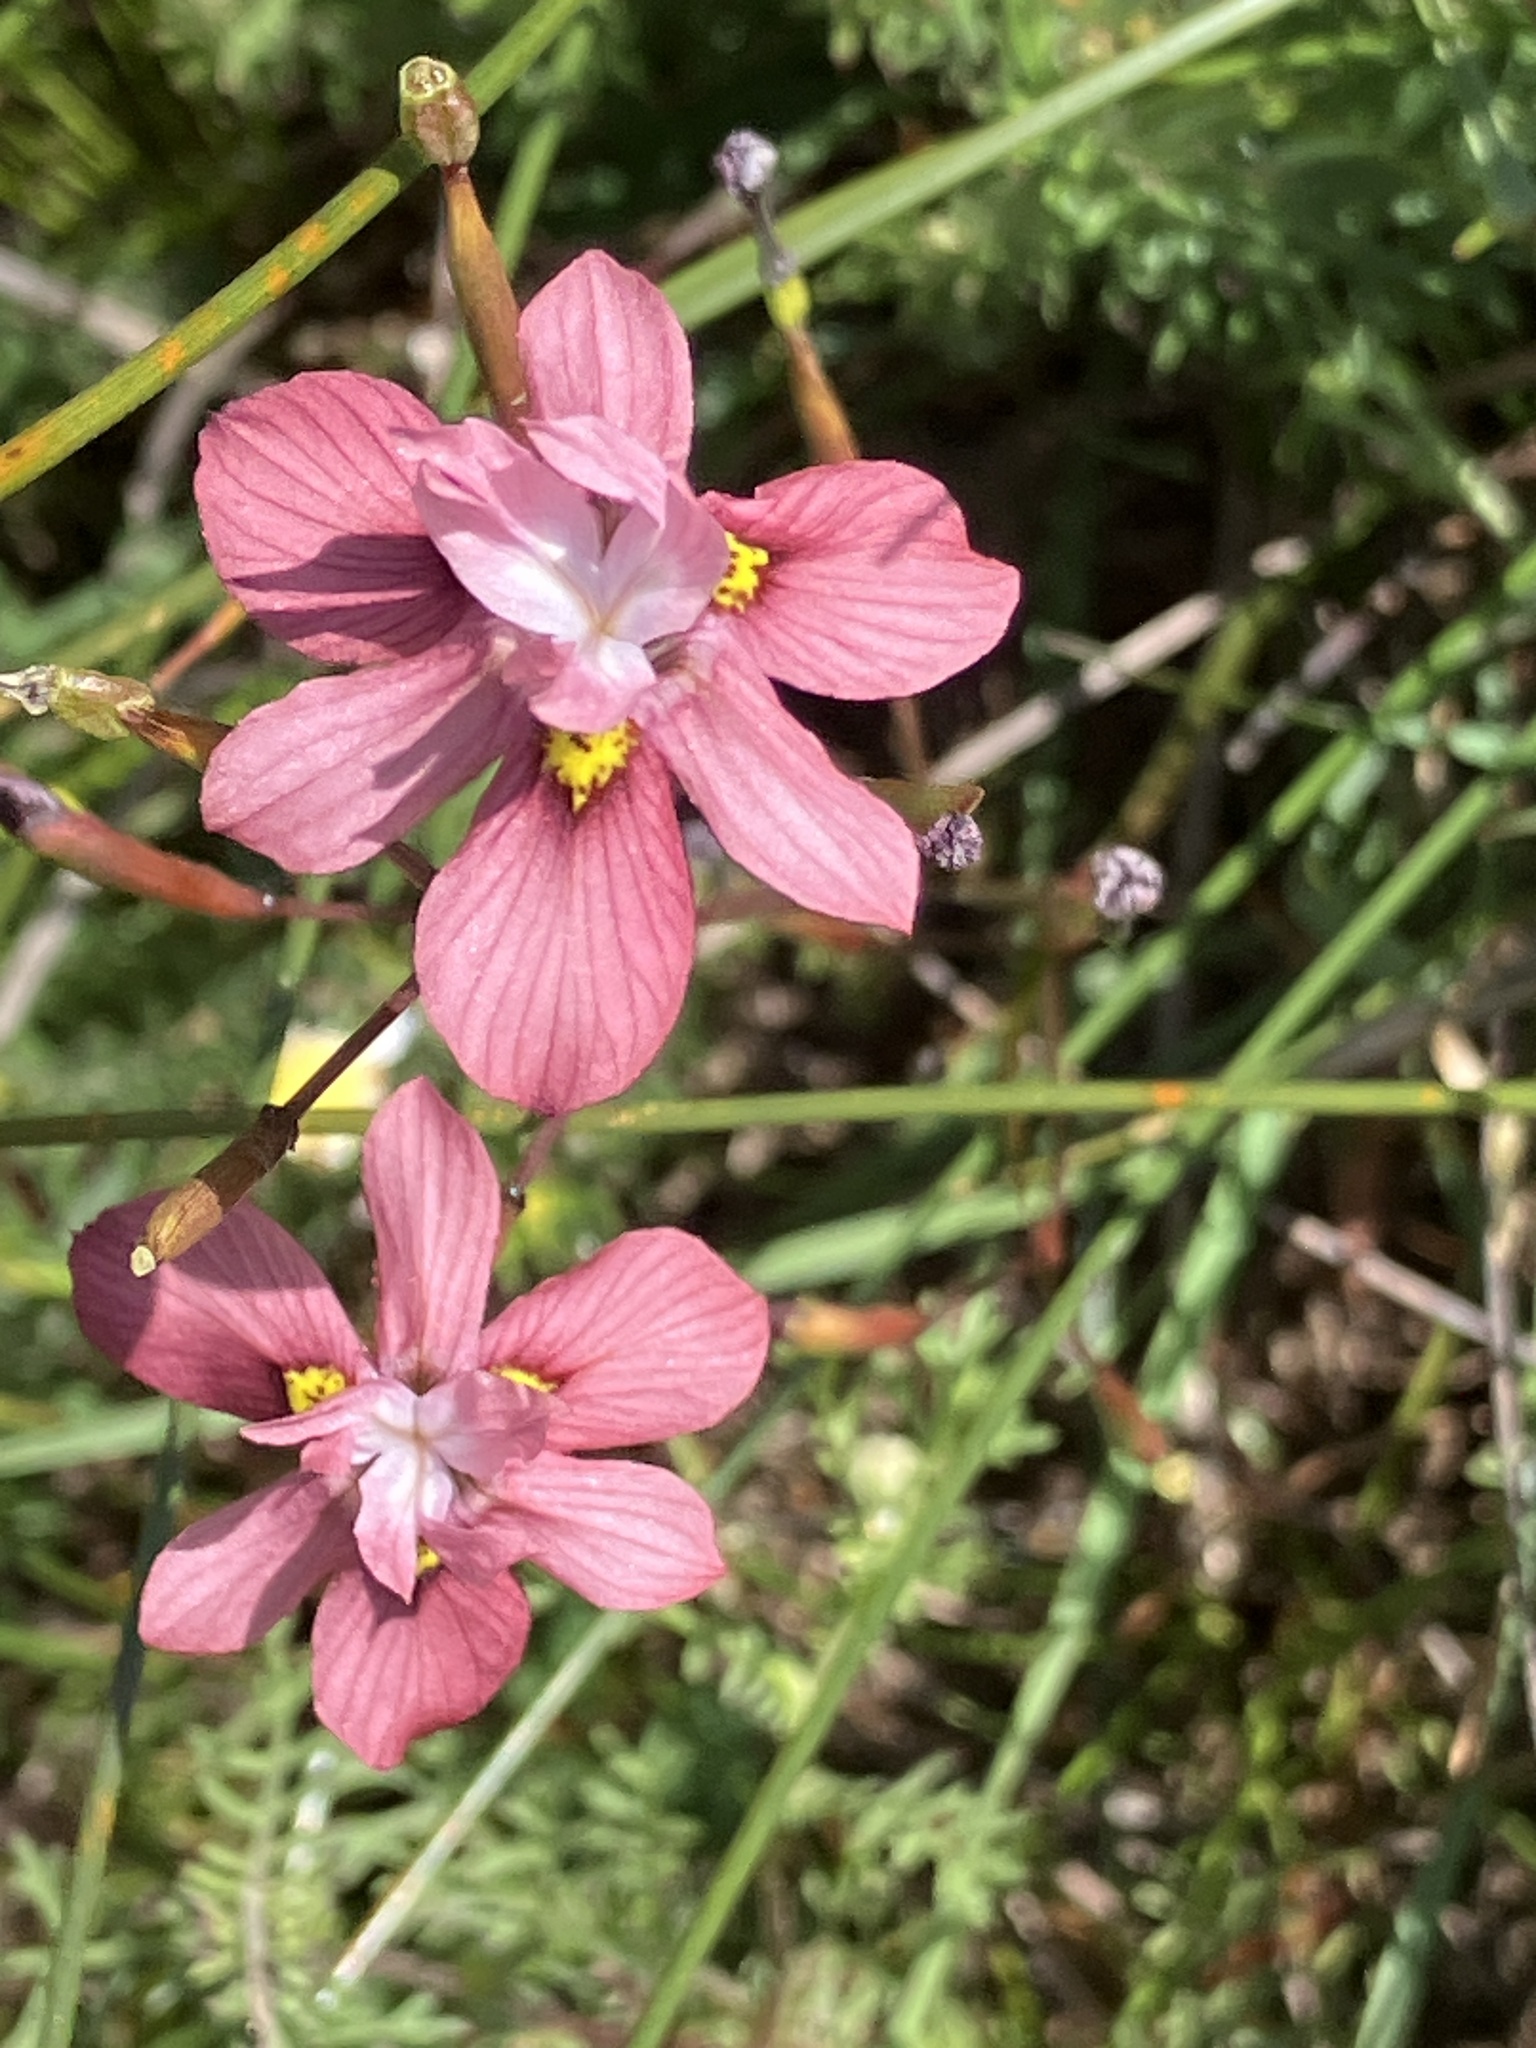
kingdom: Plantae
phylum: Tracheophyta
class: Liliopsida
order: Asparagales
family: Iridaceae
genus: Moraea
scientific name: Moraea gawleri
